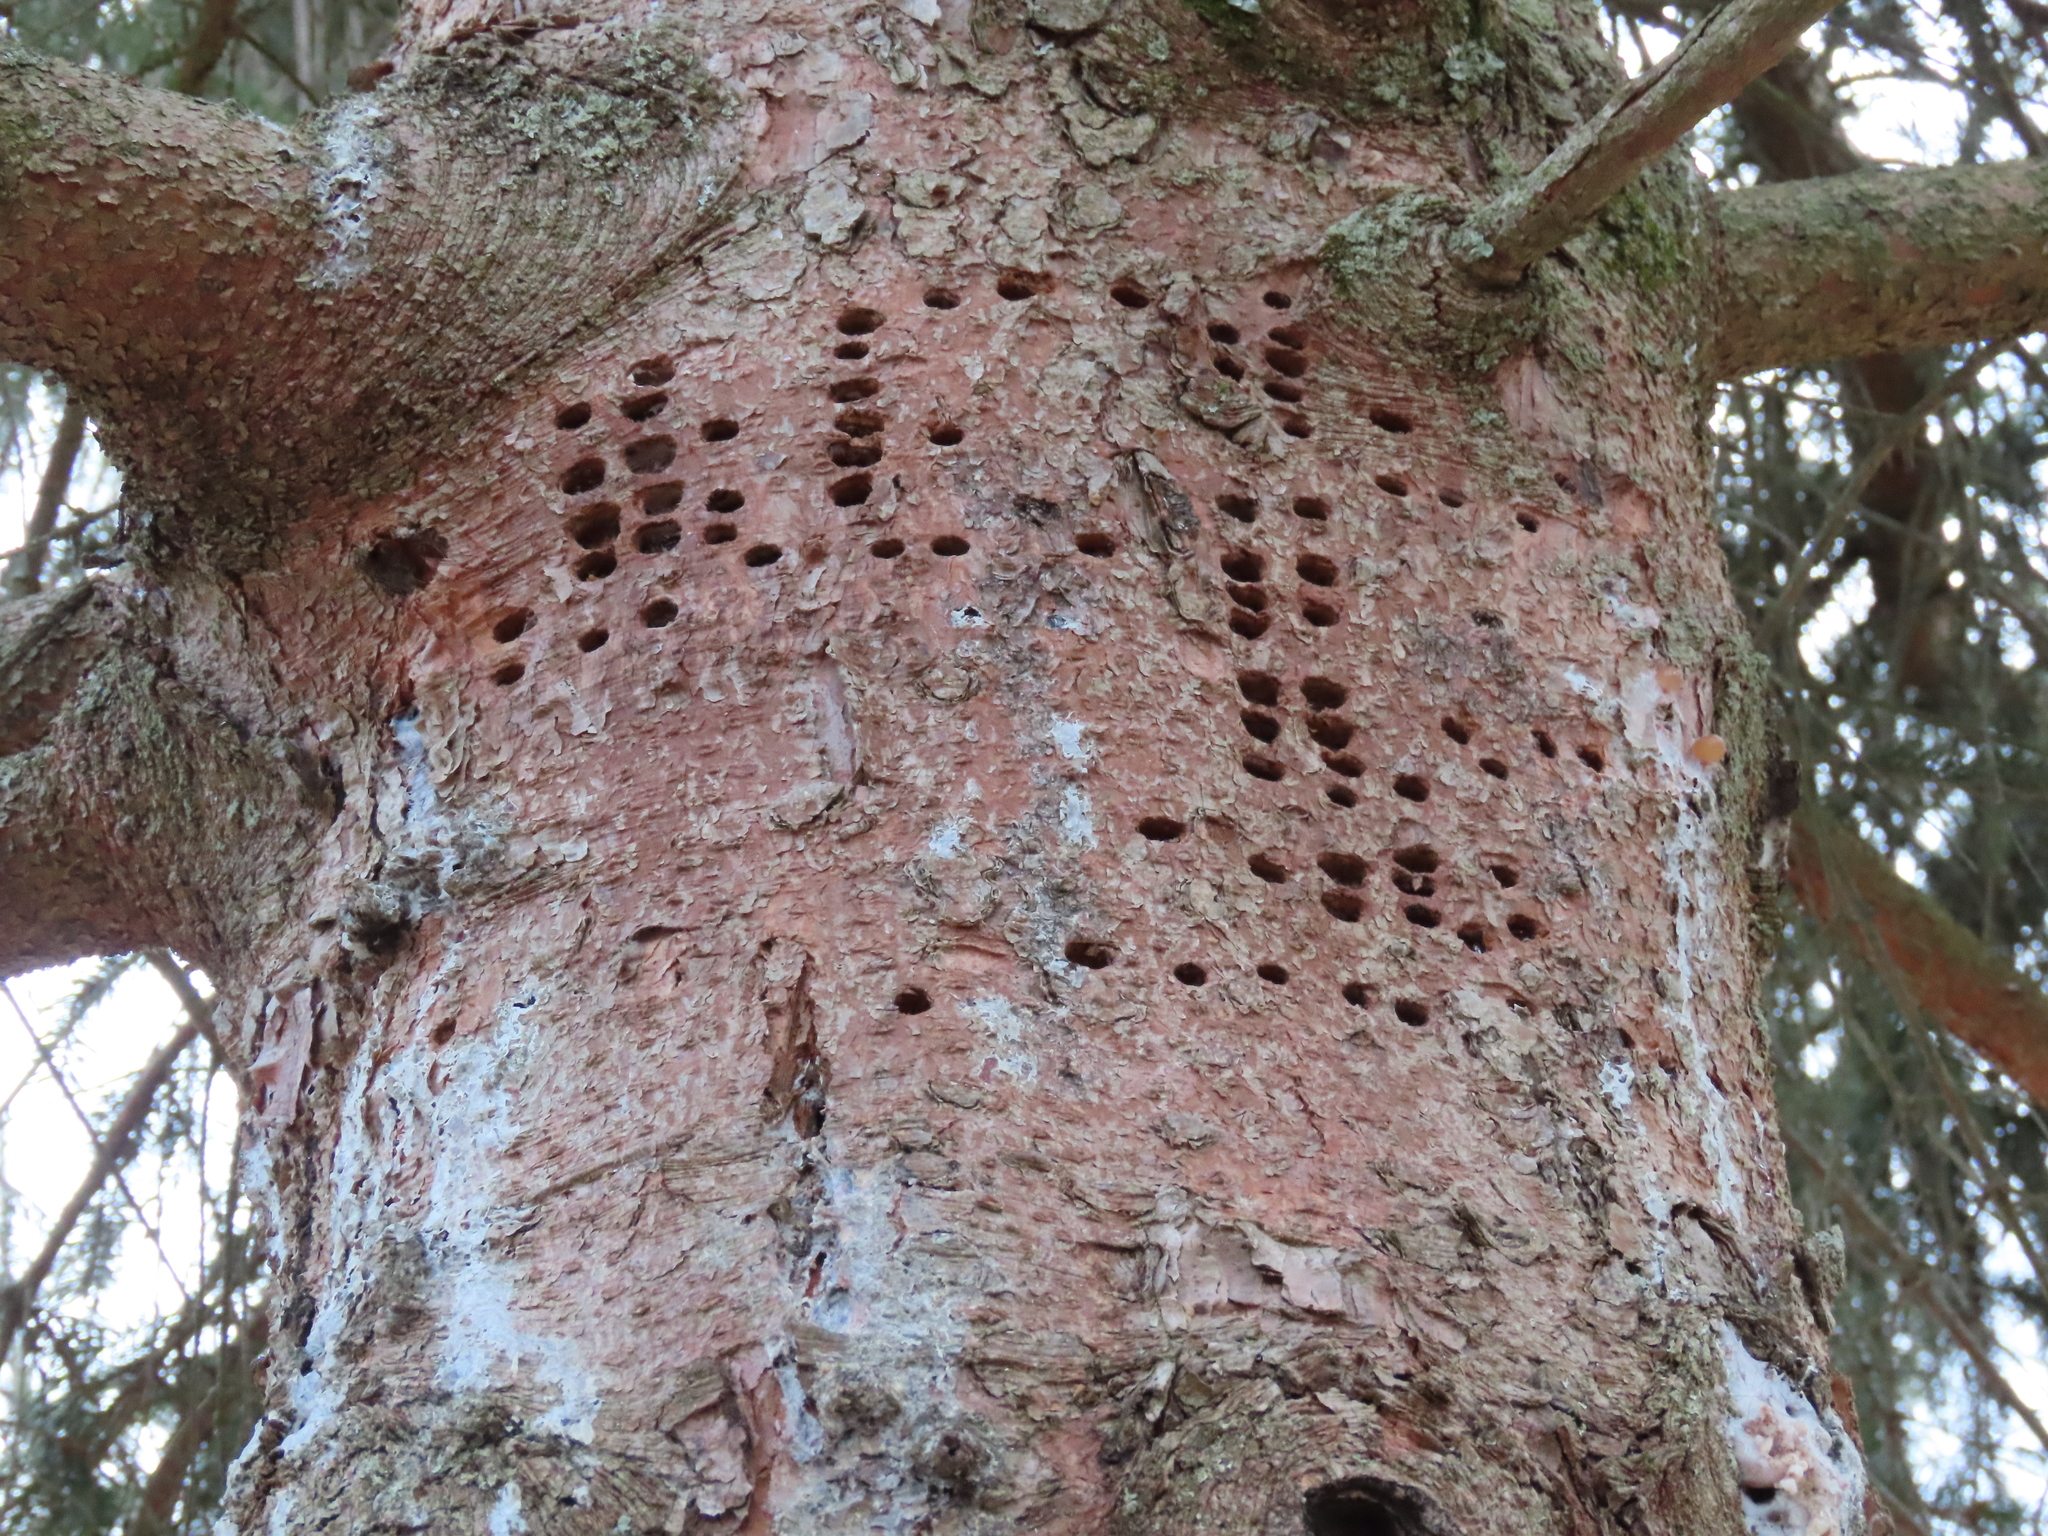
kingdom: Animalia
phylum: Chordata
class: Aves
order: Piciformes
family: Picidae
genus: Sphyrapicus
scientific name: Sphyrapicus varius
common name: Yellow-bellied sapsucker
